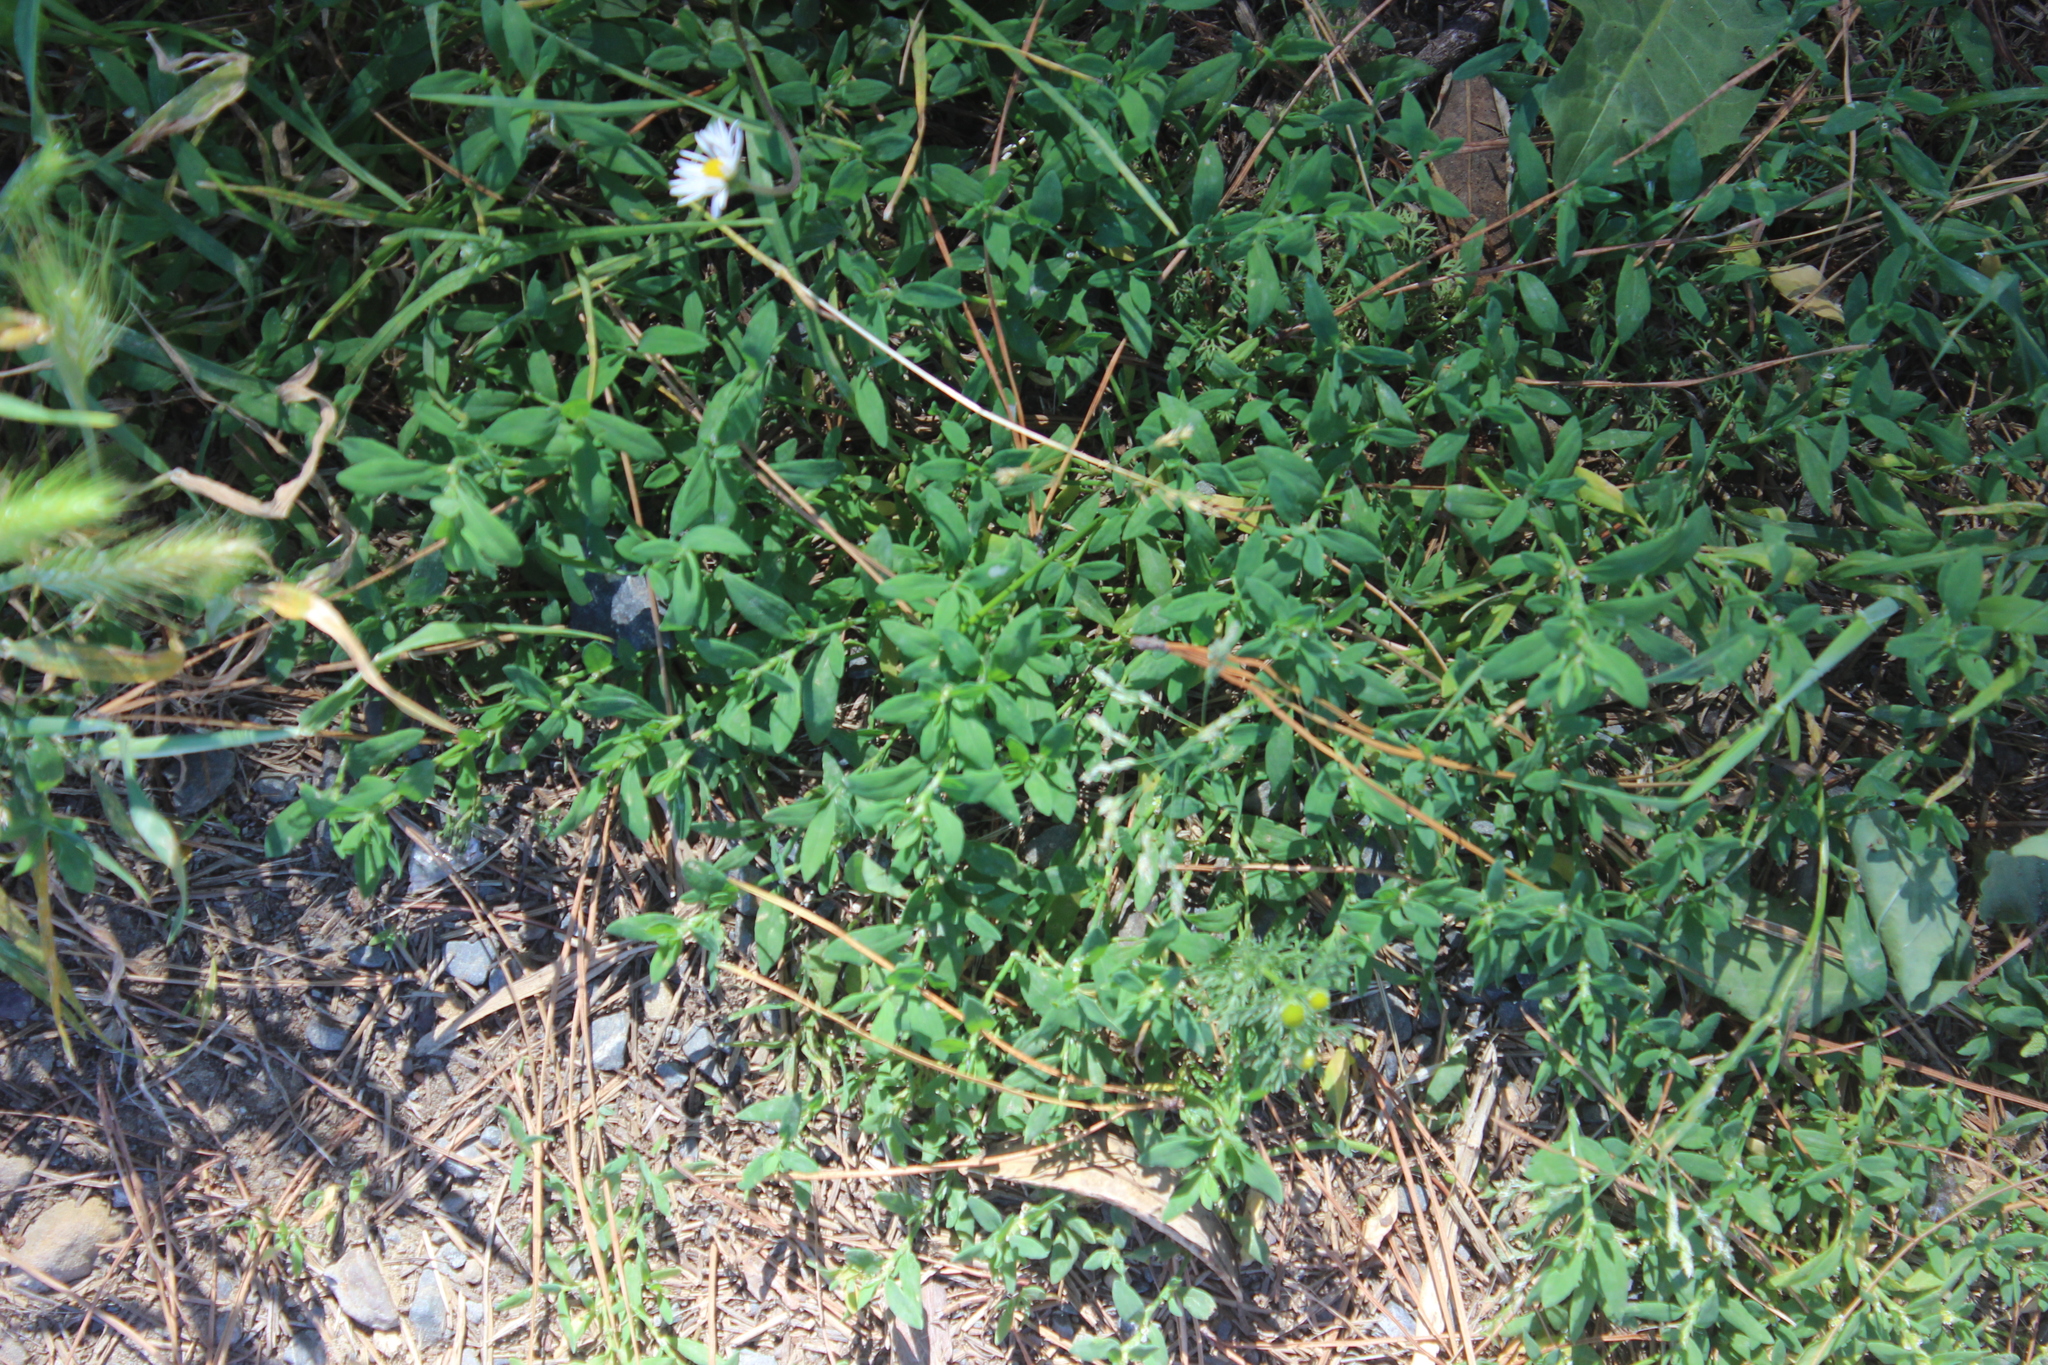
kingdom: Plantae
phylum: Tracheophyta
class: Magnoliopsida
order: Caryophyllales
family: Polygonaceae
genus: Polygonum
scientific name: Polygonum arenastrum
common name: Equal-leaved knotgrass
